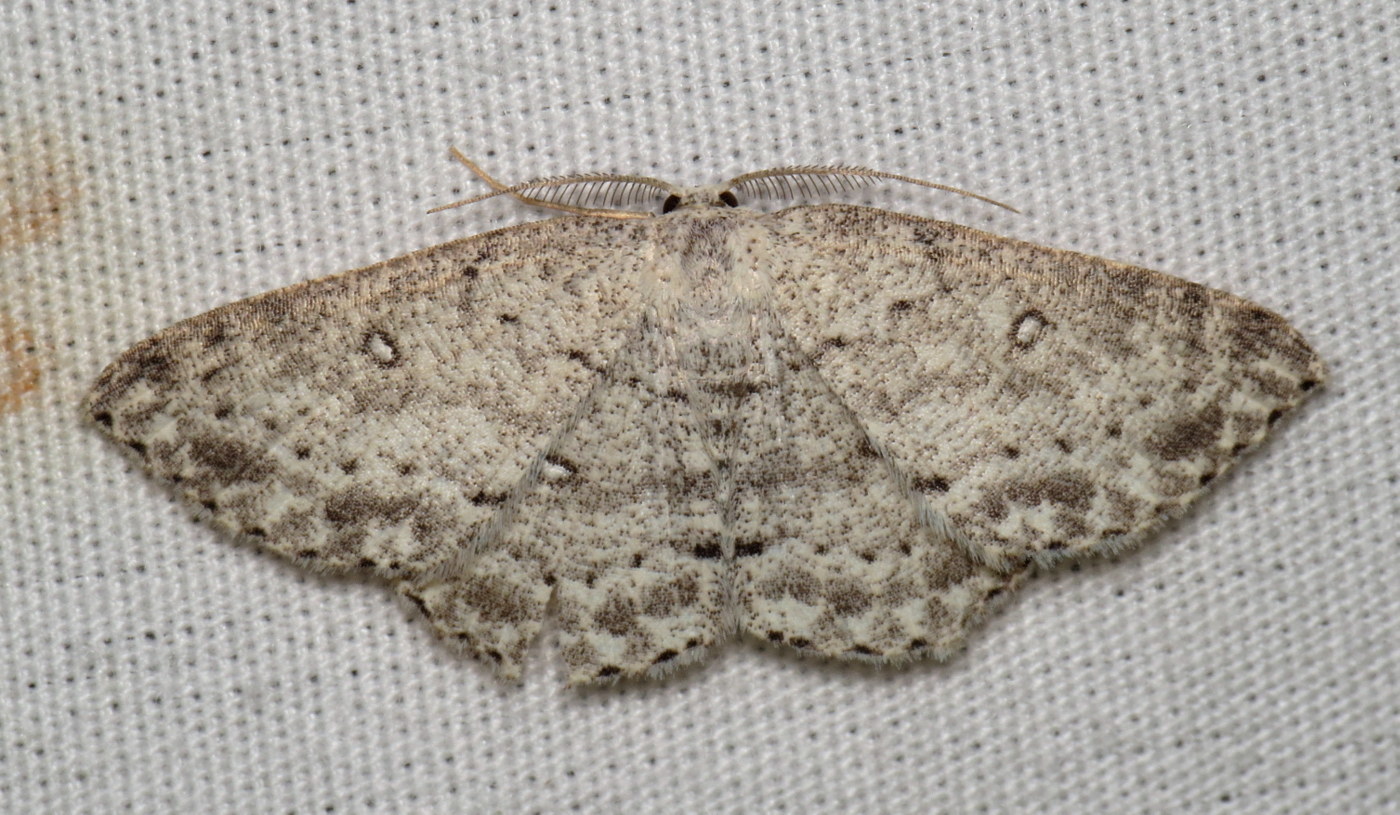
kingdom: Animalia
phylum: Arthropoda
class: Insecta
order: Lepidoptera
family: Geometridae
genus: Cyclophora
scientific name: Cyclophora pendulinaria
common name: Sweet fern geometer
